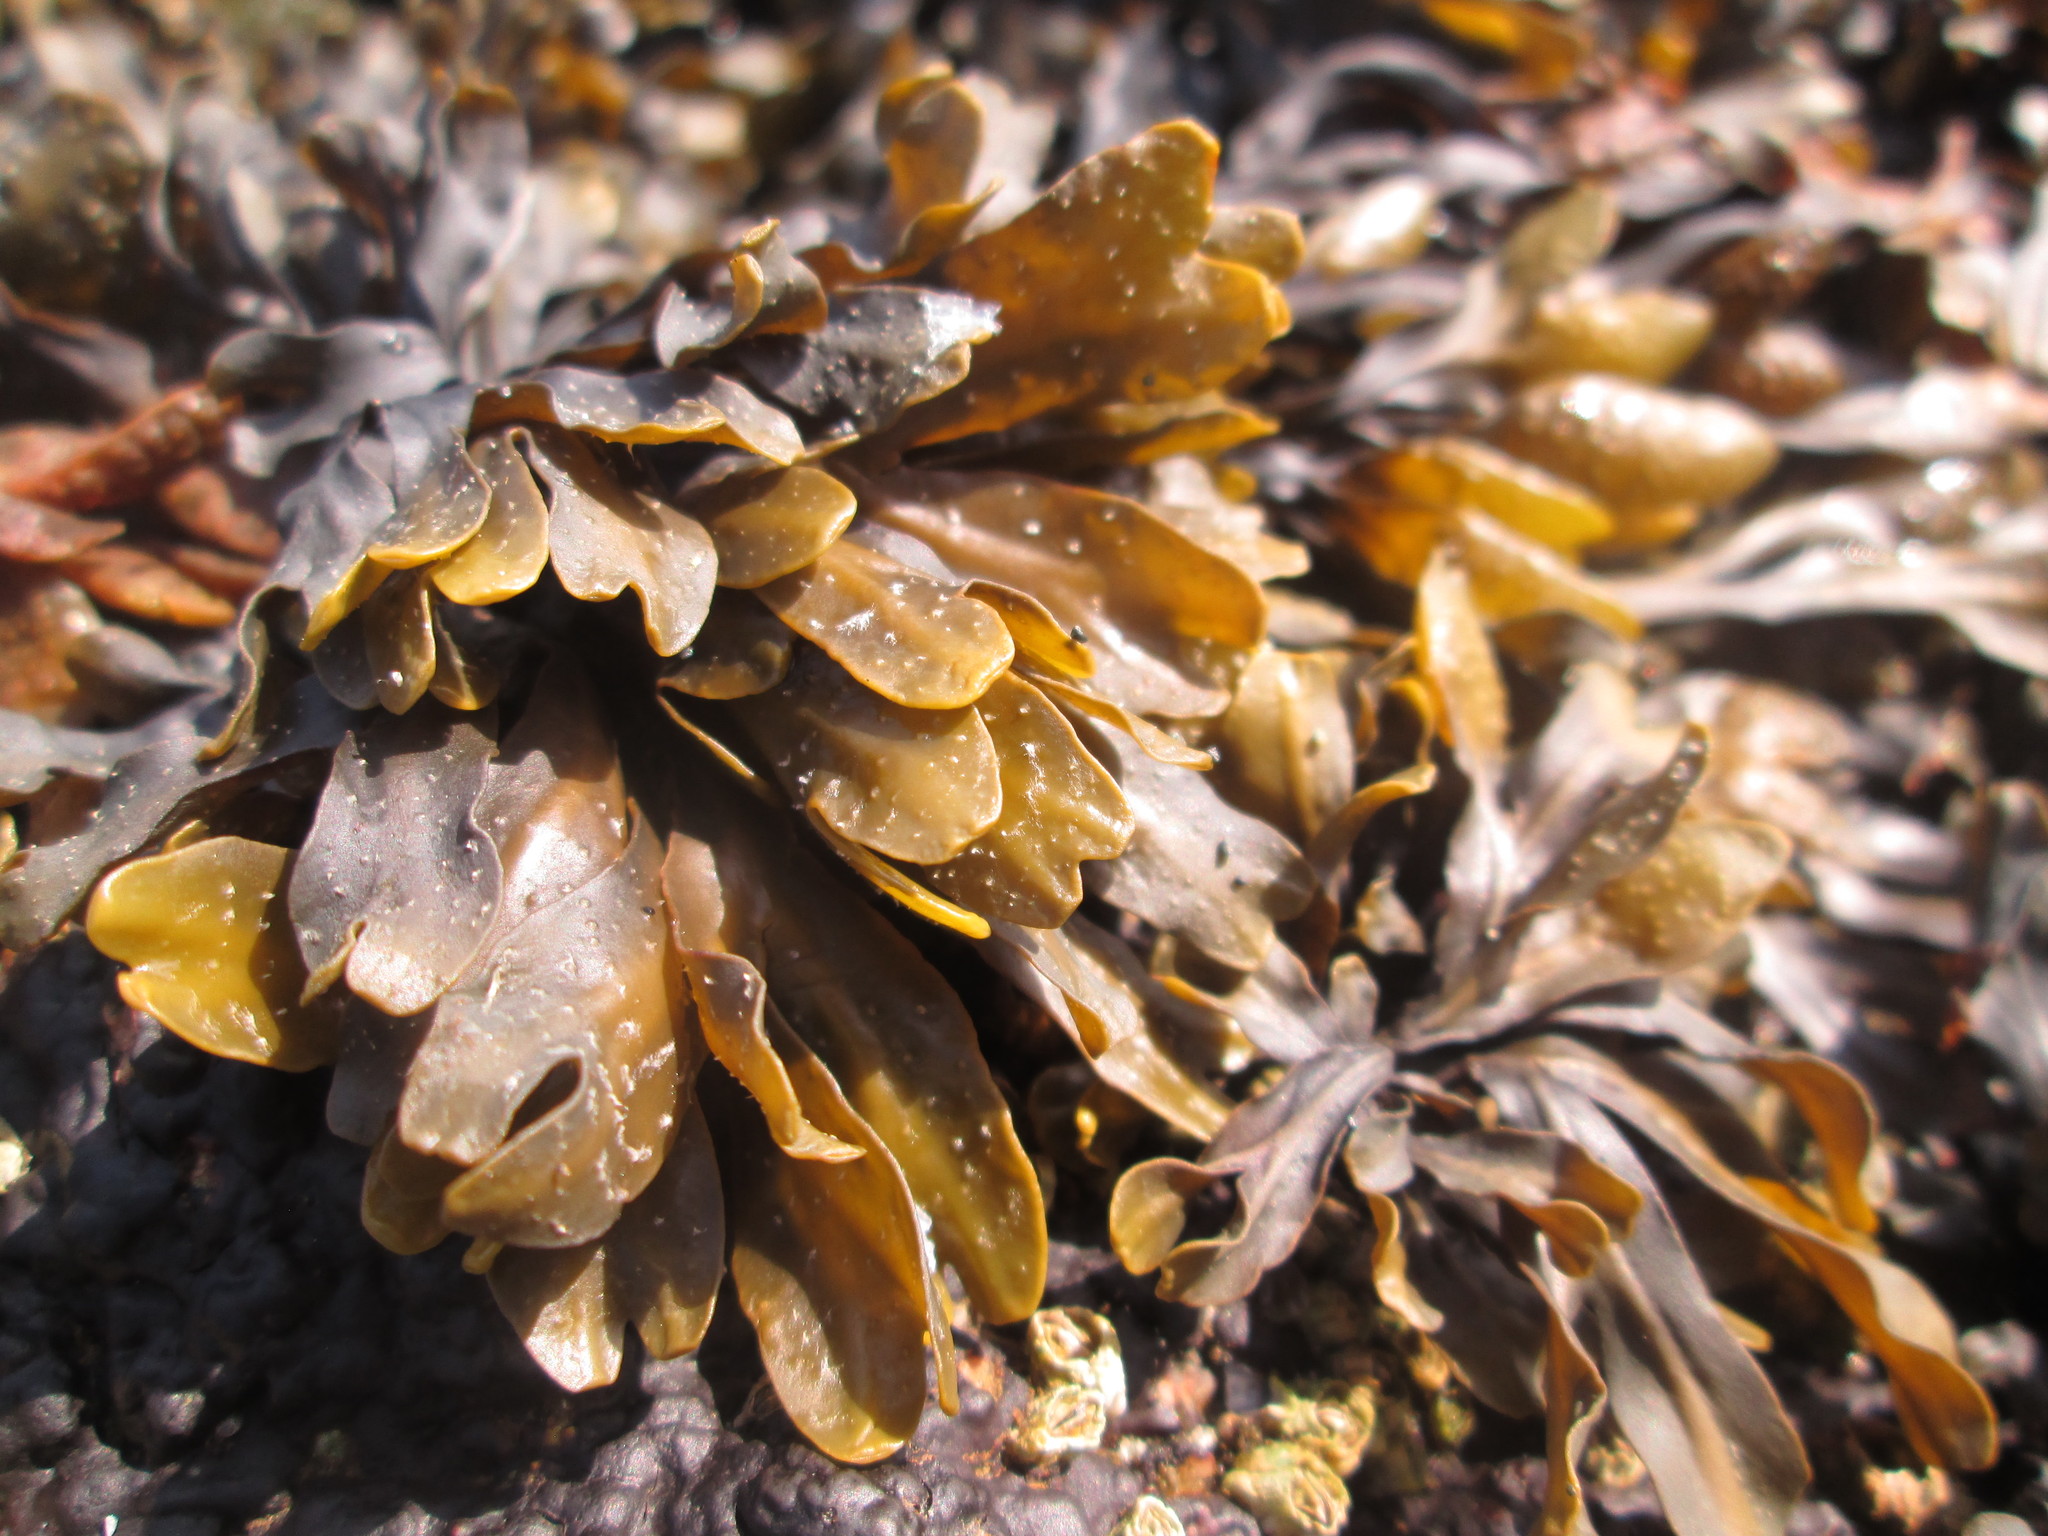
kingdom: Chromista
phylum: Ochrophyta
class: Phaeophyceae
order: Fucales
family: Fucaceae
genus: Fucus
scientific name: Fucus distichus
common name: Rockweed
